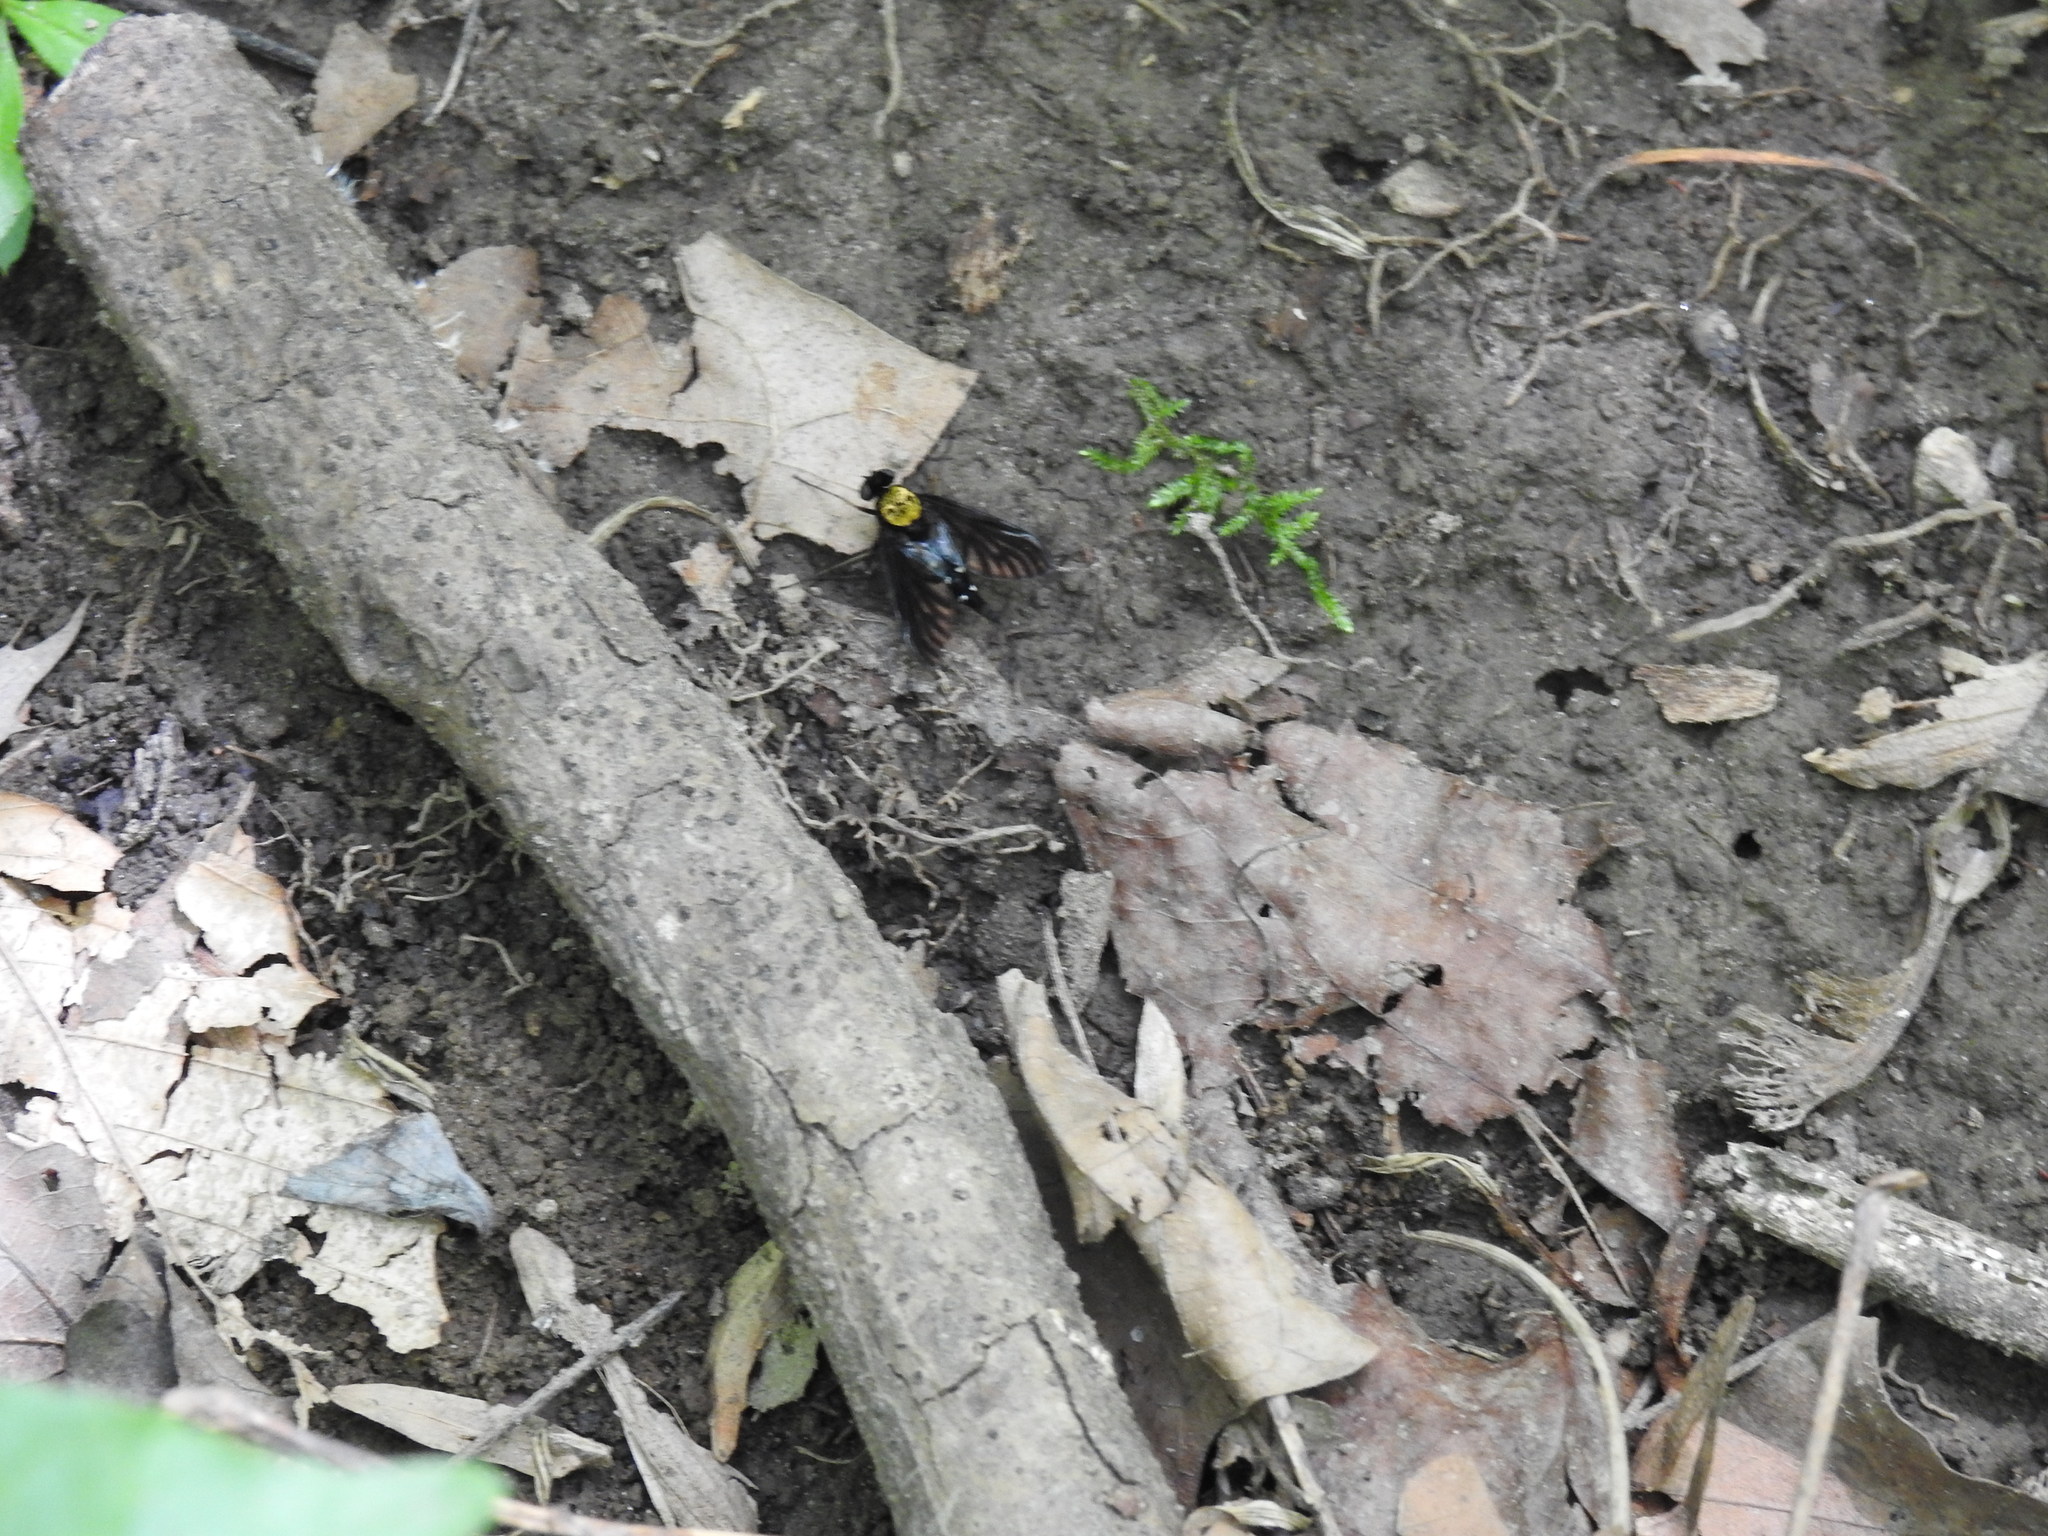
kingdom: Animalia
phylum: Arthropoda
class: Insecta
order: Diptera
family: Rhagionidae
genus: Chrysopilus
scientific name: Chrysopilus thoracicus
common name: Golden-backed snipe fly
